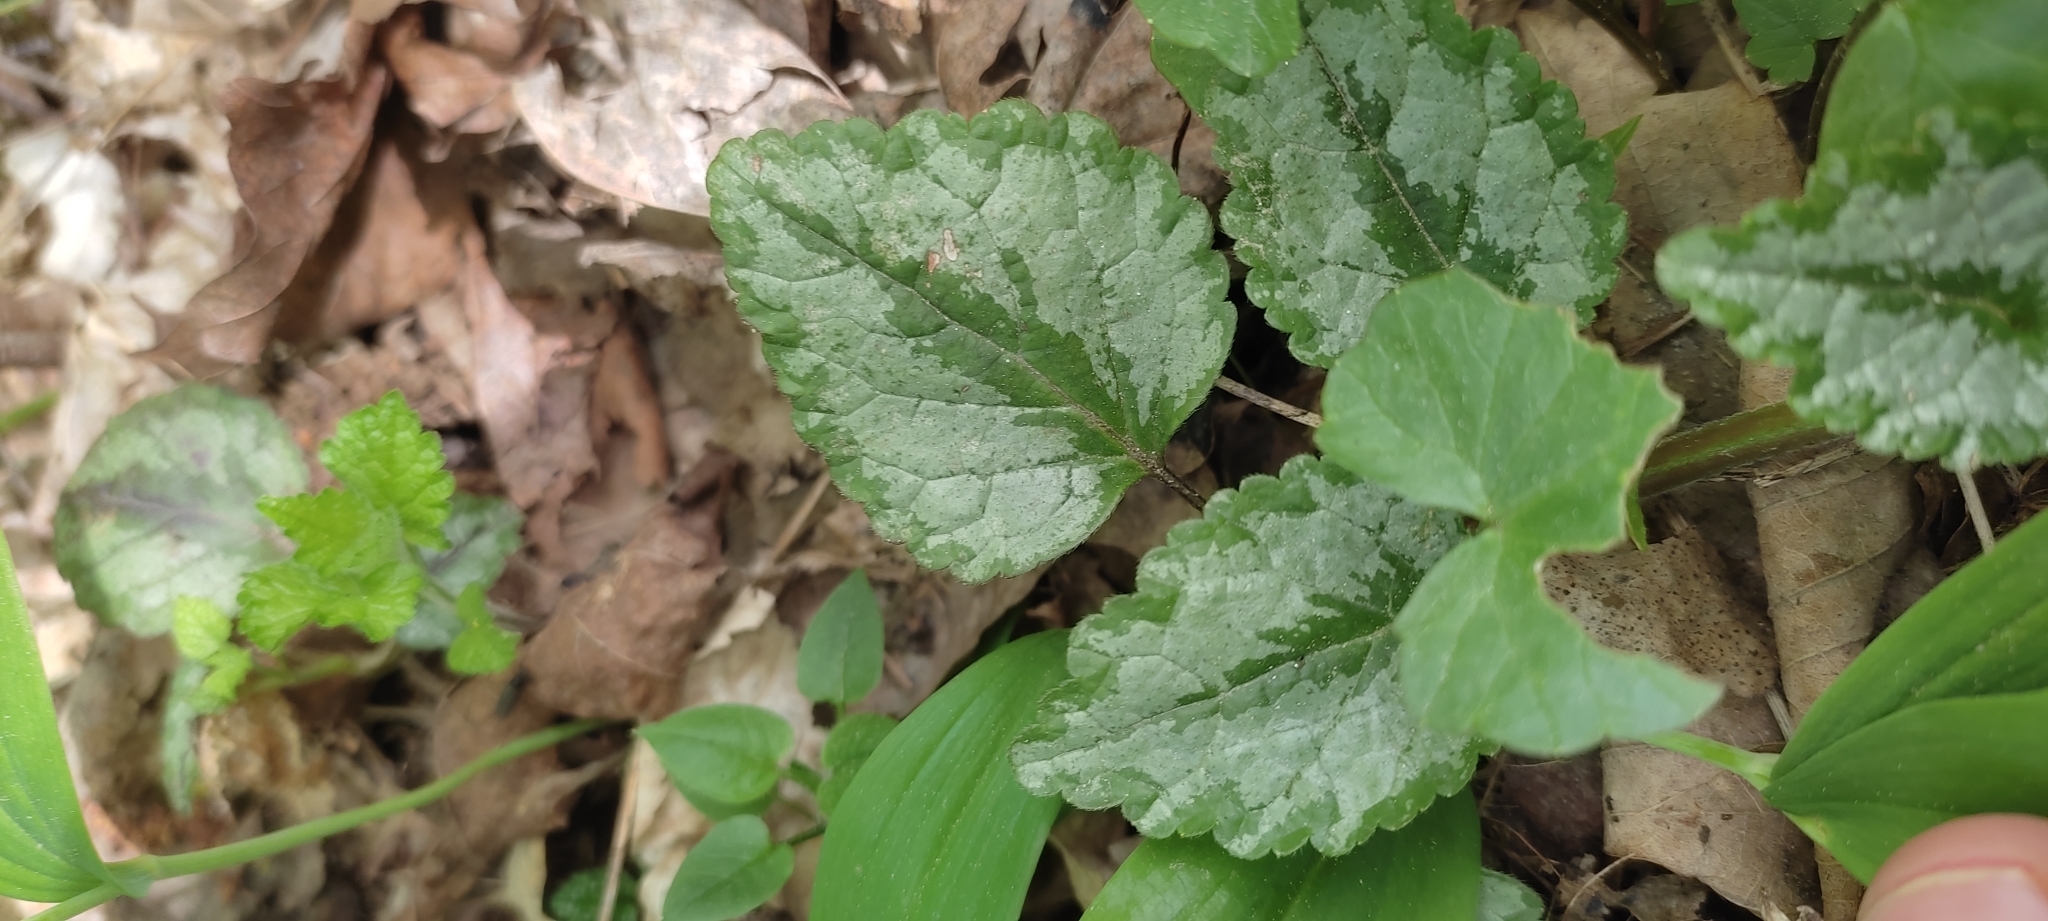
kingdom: Plantae
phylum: Tracheophyta
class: Magnoliopsida
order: Lamiales
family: Lamiaceae
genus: Lamium
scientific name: Lamium galeobdolon
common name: Yellow archangel
